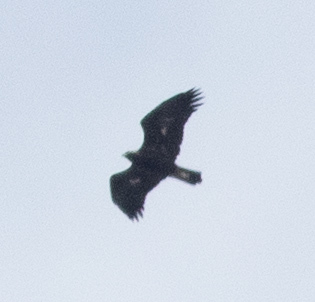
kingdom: Animalia
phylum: Chordata
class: Aves
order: Accipitriformes
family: Accipitridae
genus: Aquila
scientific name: Aquila chrysaetos
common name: Golden eagle
